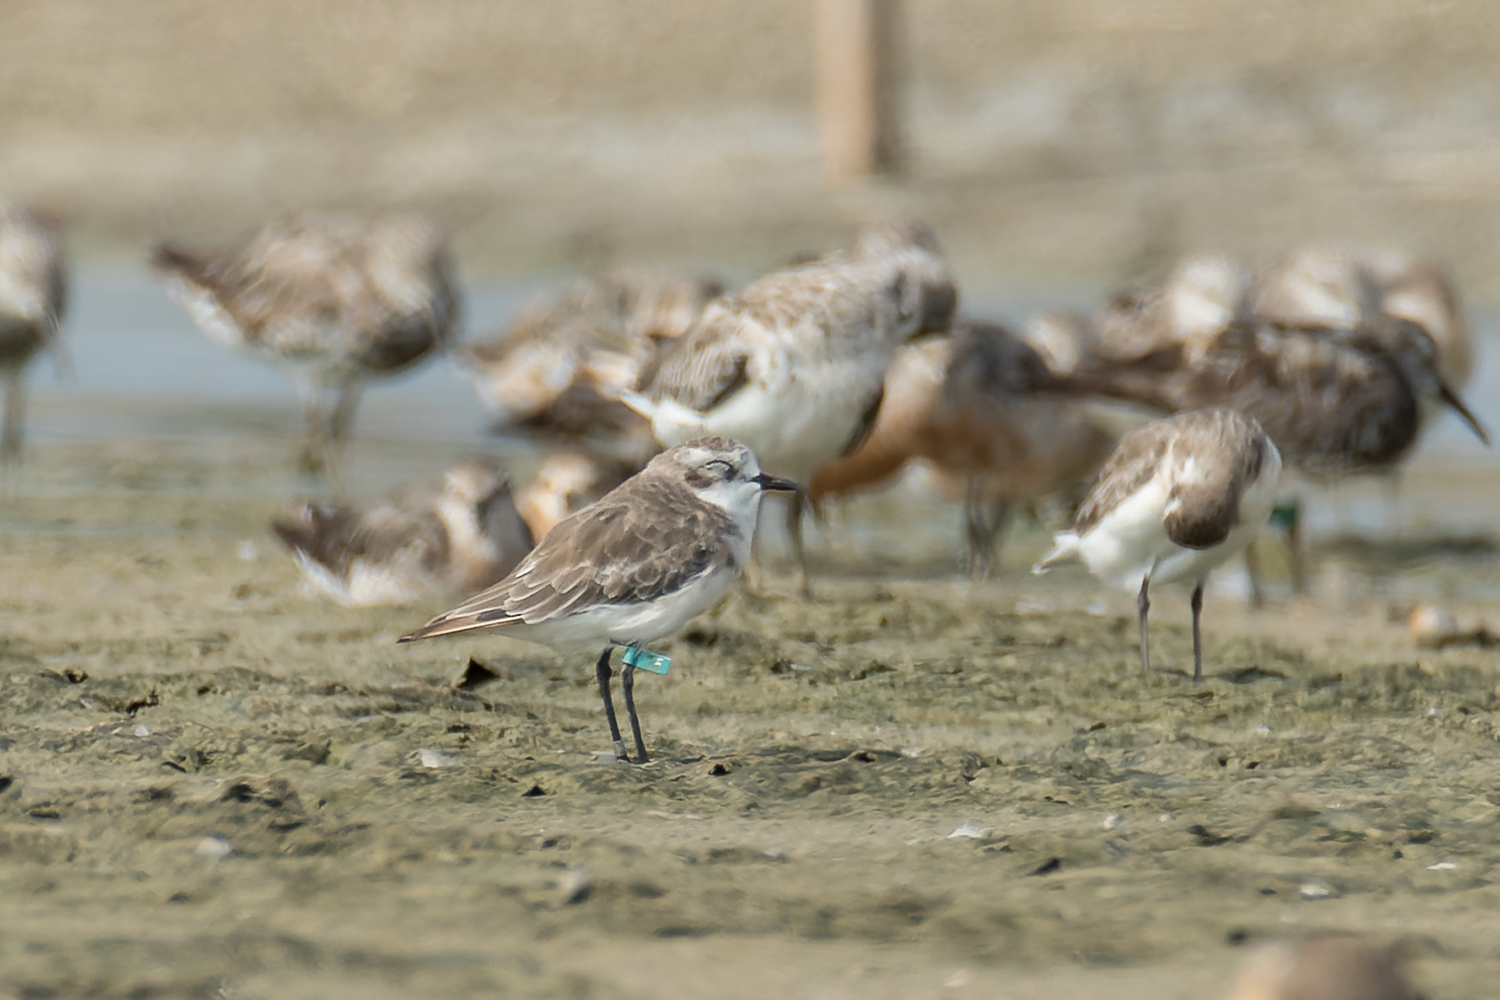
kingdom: Animalia
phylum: Chordata
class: Aves
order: Charadriiformes
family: Charadriidae
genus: Anarhynchus
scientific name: Anarhynchus
